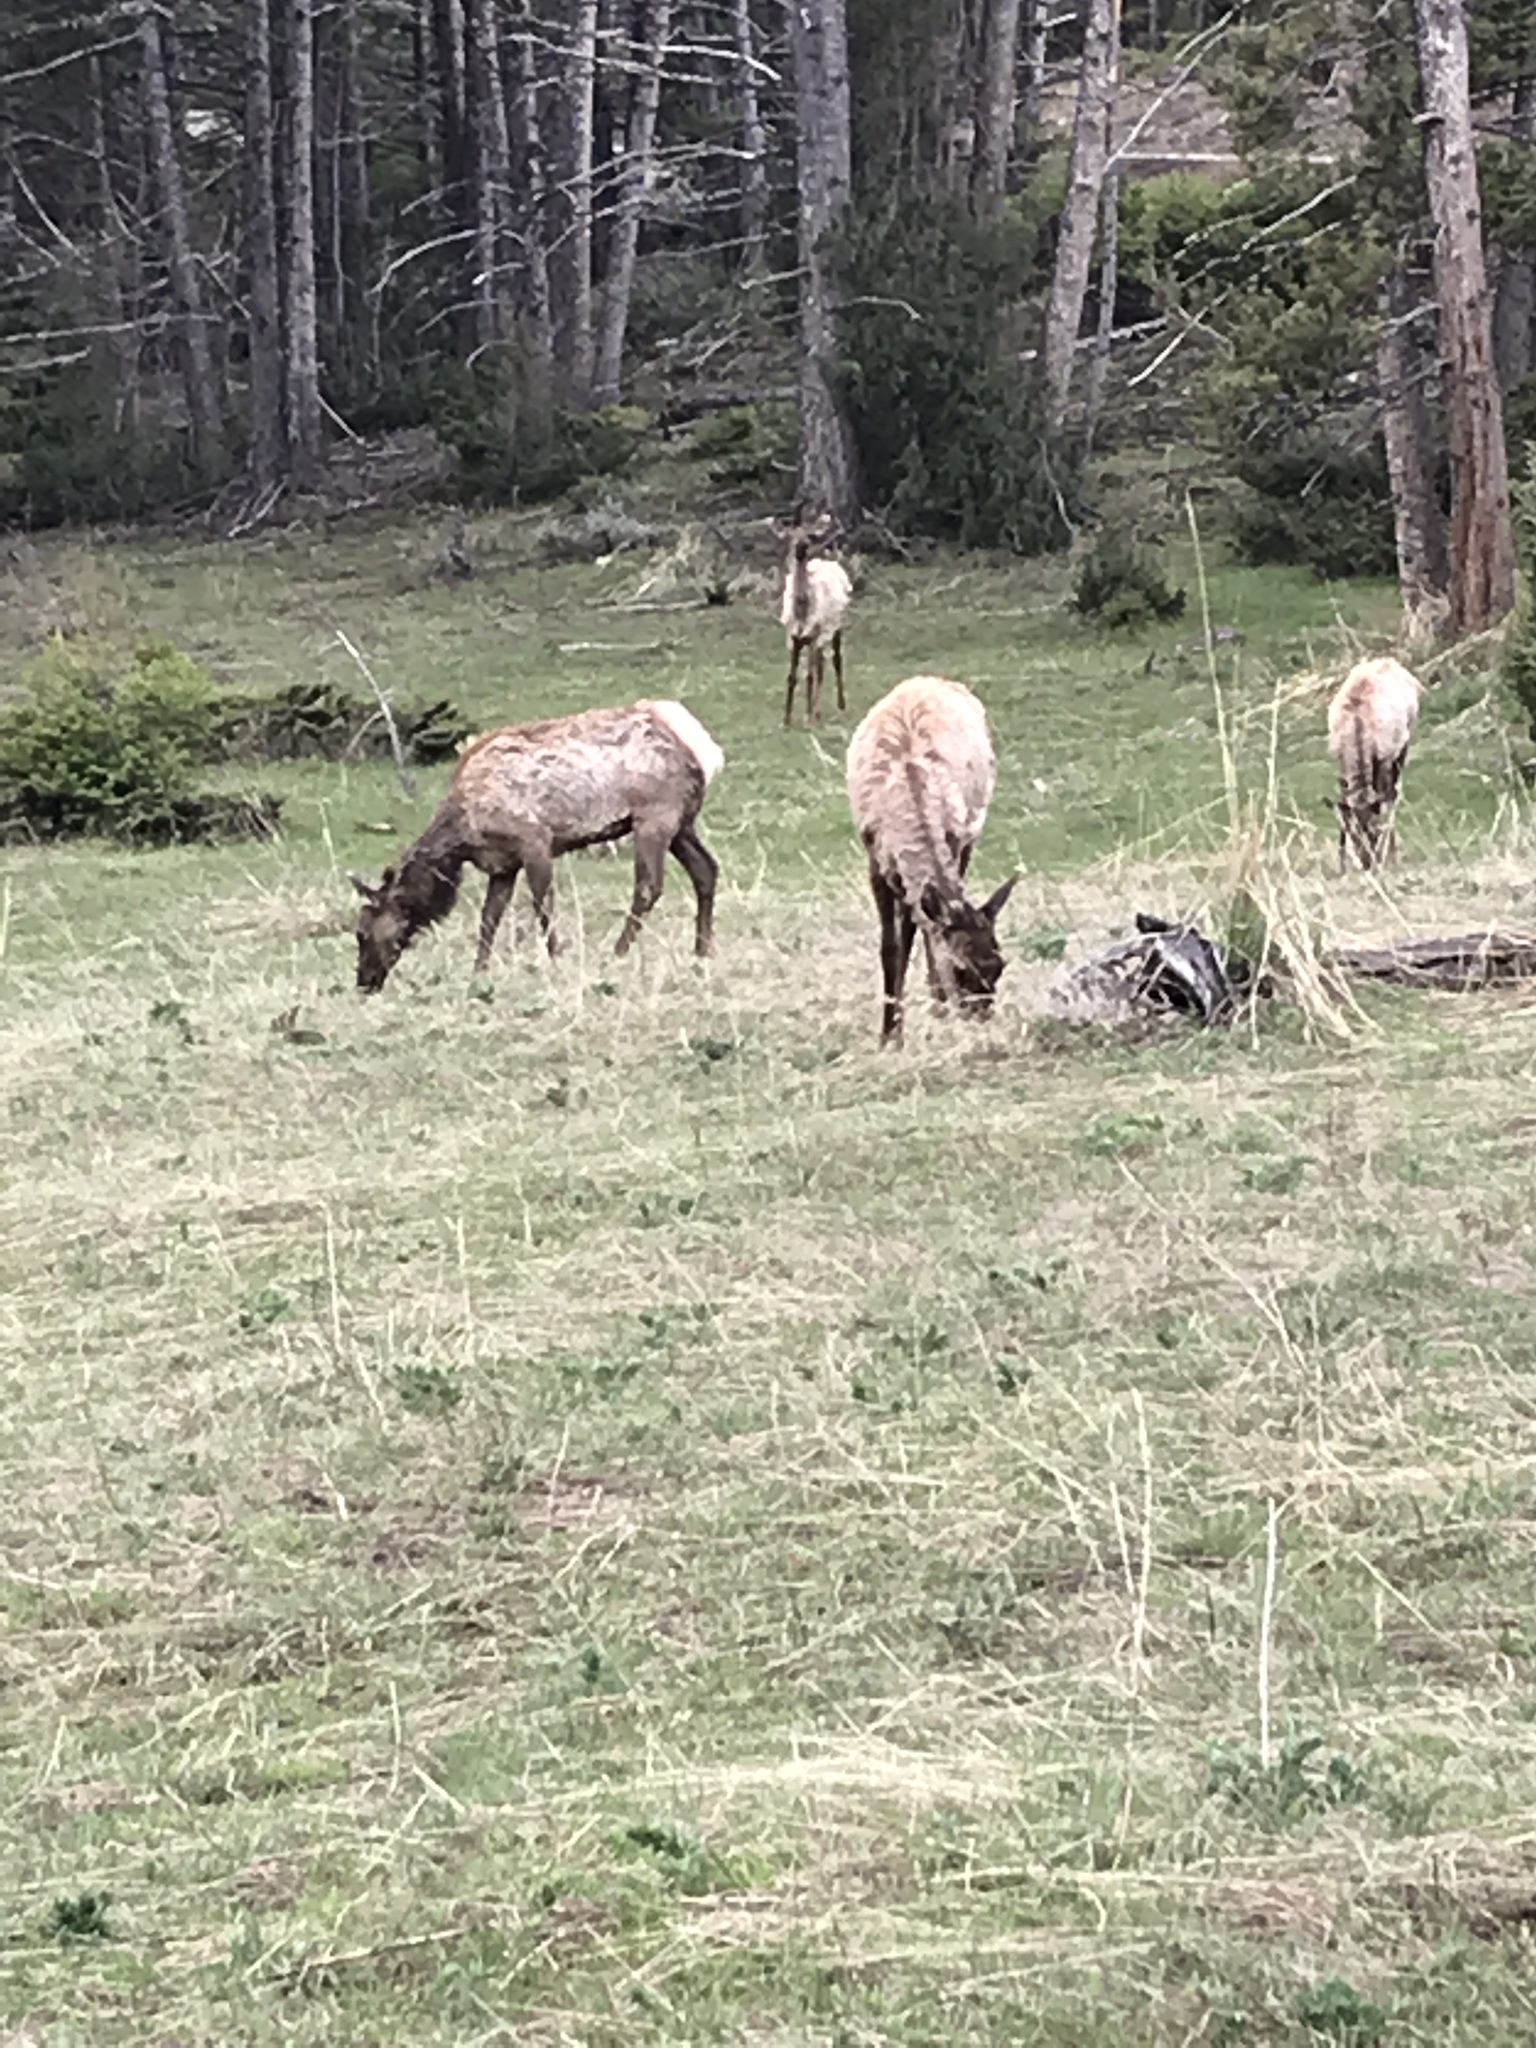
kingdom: Animalia
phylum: Chordata
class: Mammalia
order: Artiodactyla
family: Cervidae
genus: Cervus
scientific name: Cervus elaphus
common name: Red deer
